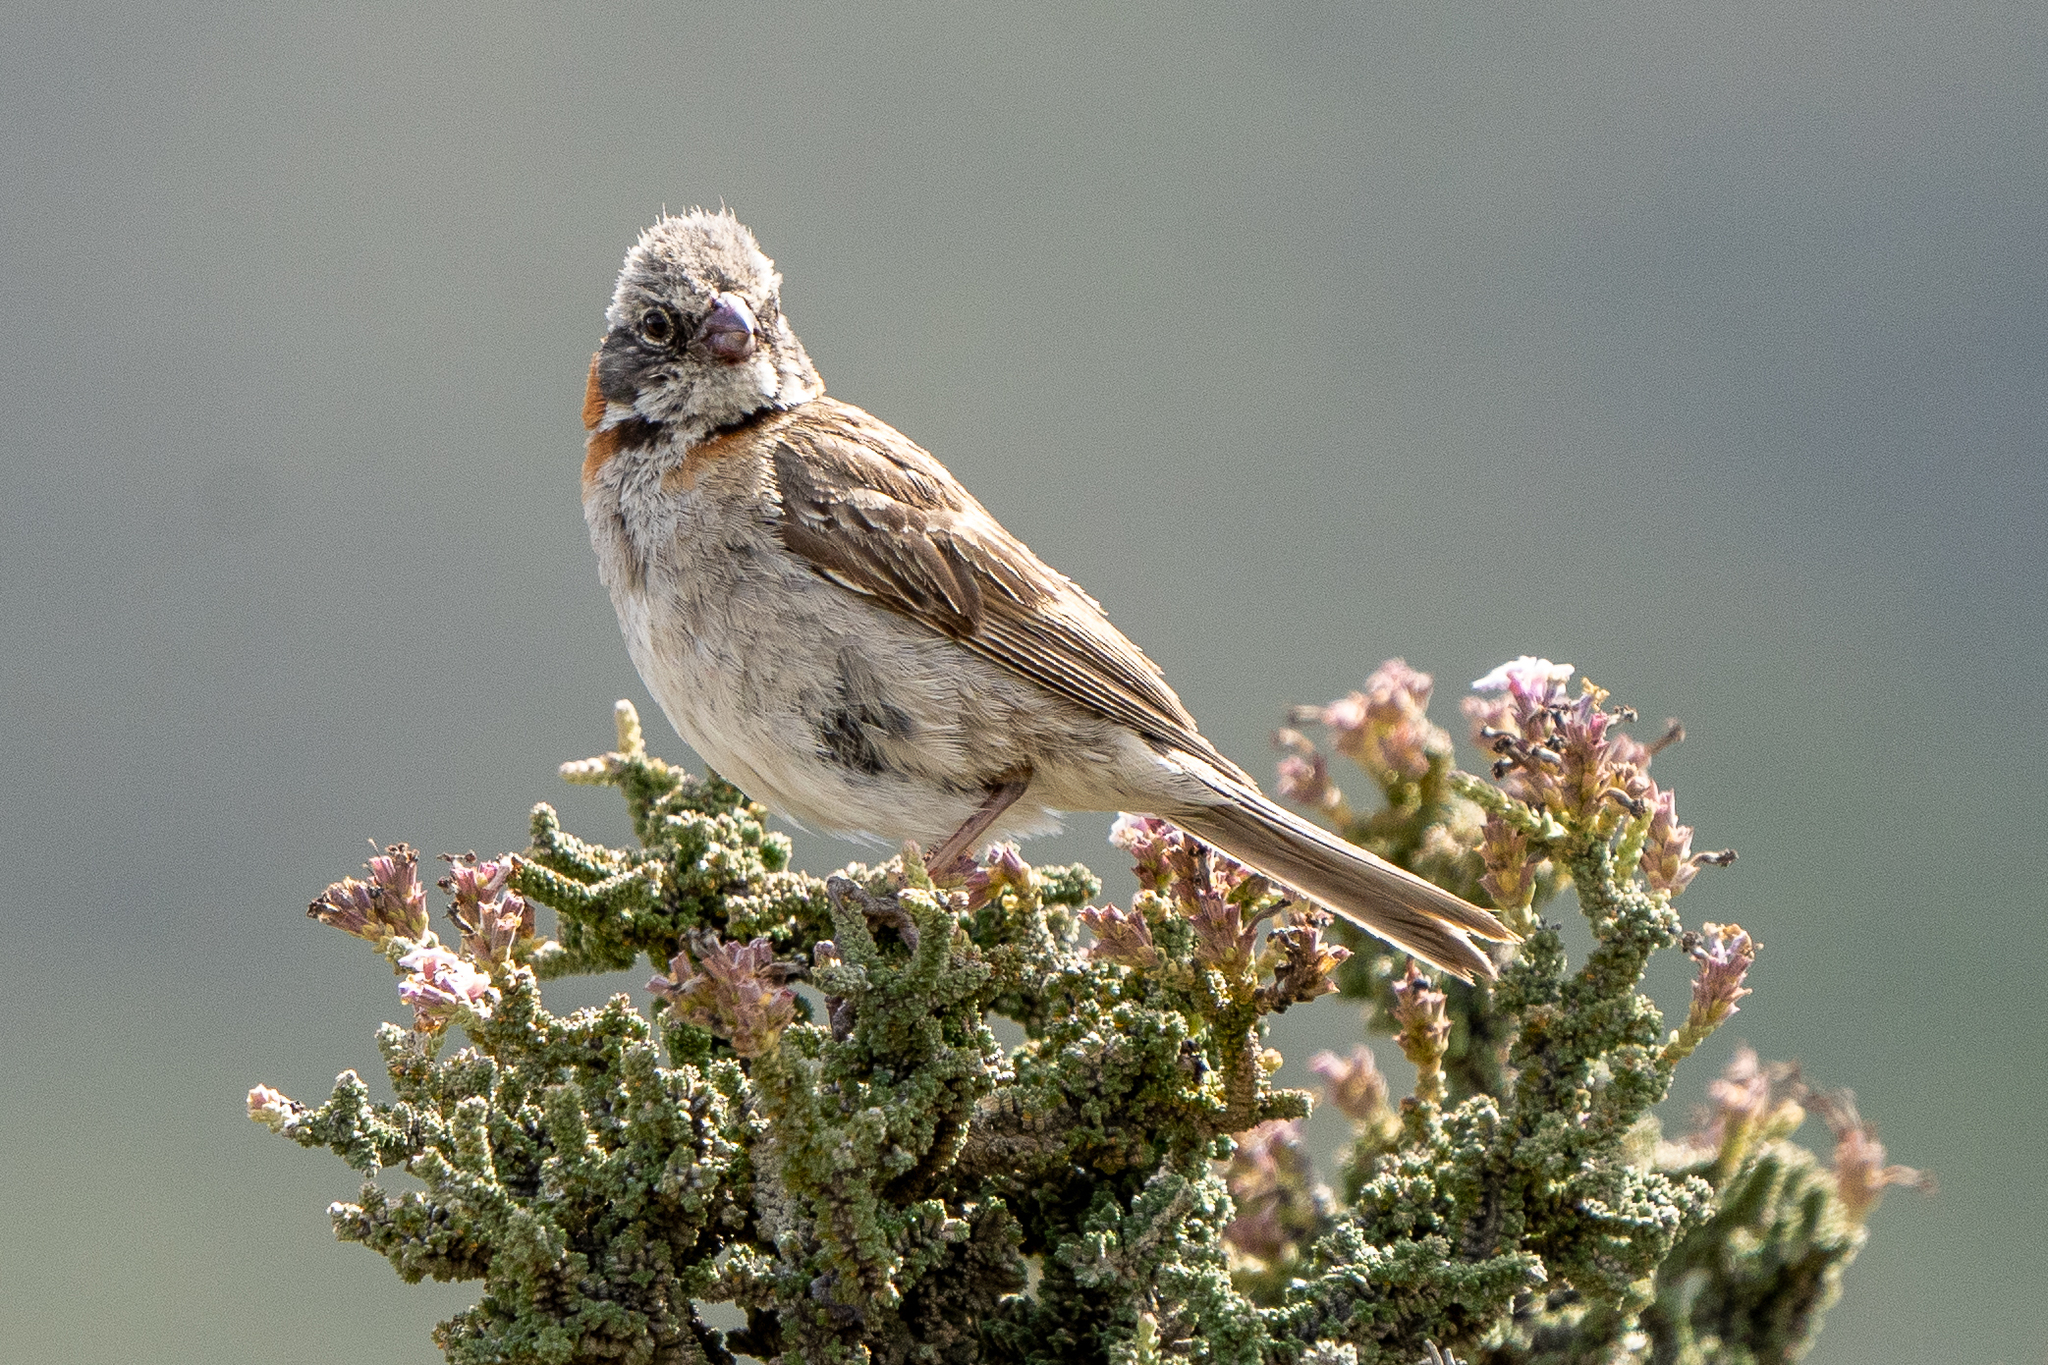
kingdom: Animalia
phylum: Chordata
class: Aves
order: Passeriformes
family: Passerellidae
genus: Zonotrichia
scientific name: Zonotrichia capensis
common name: Rufous-collared sparrow
